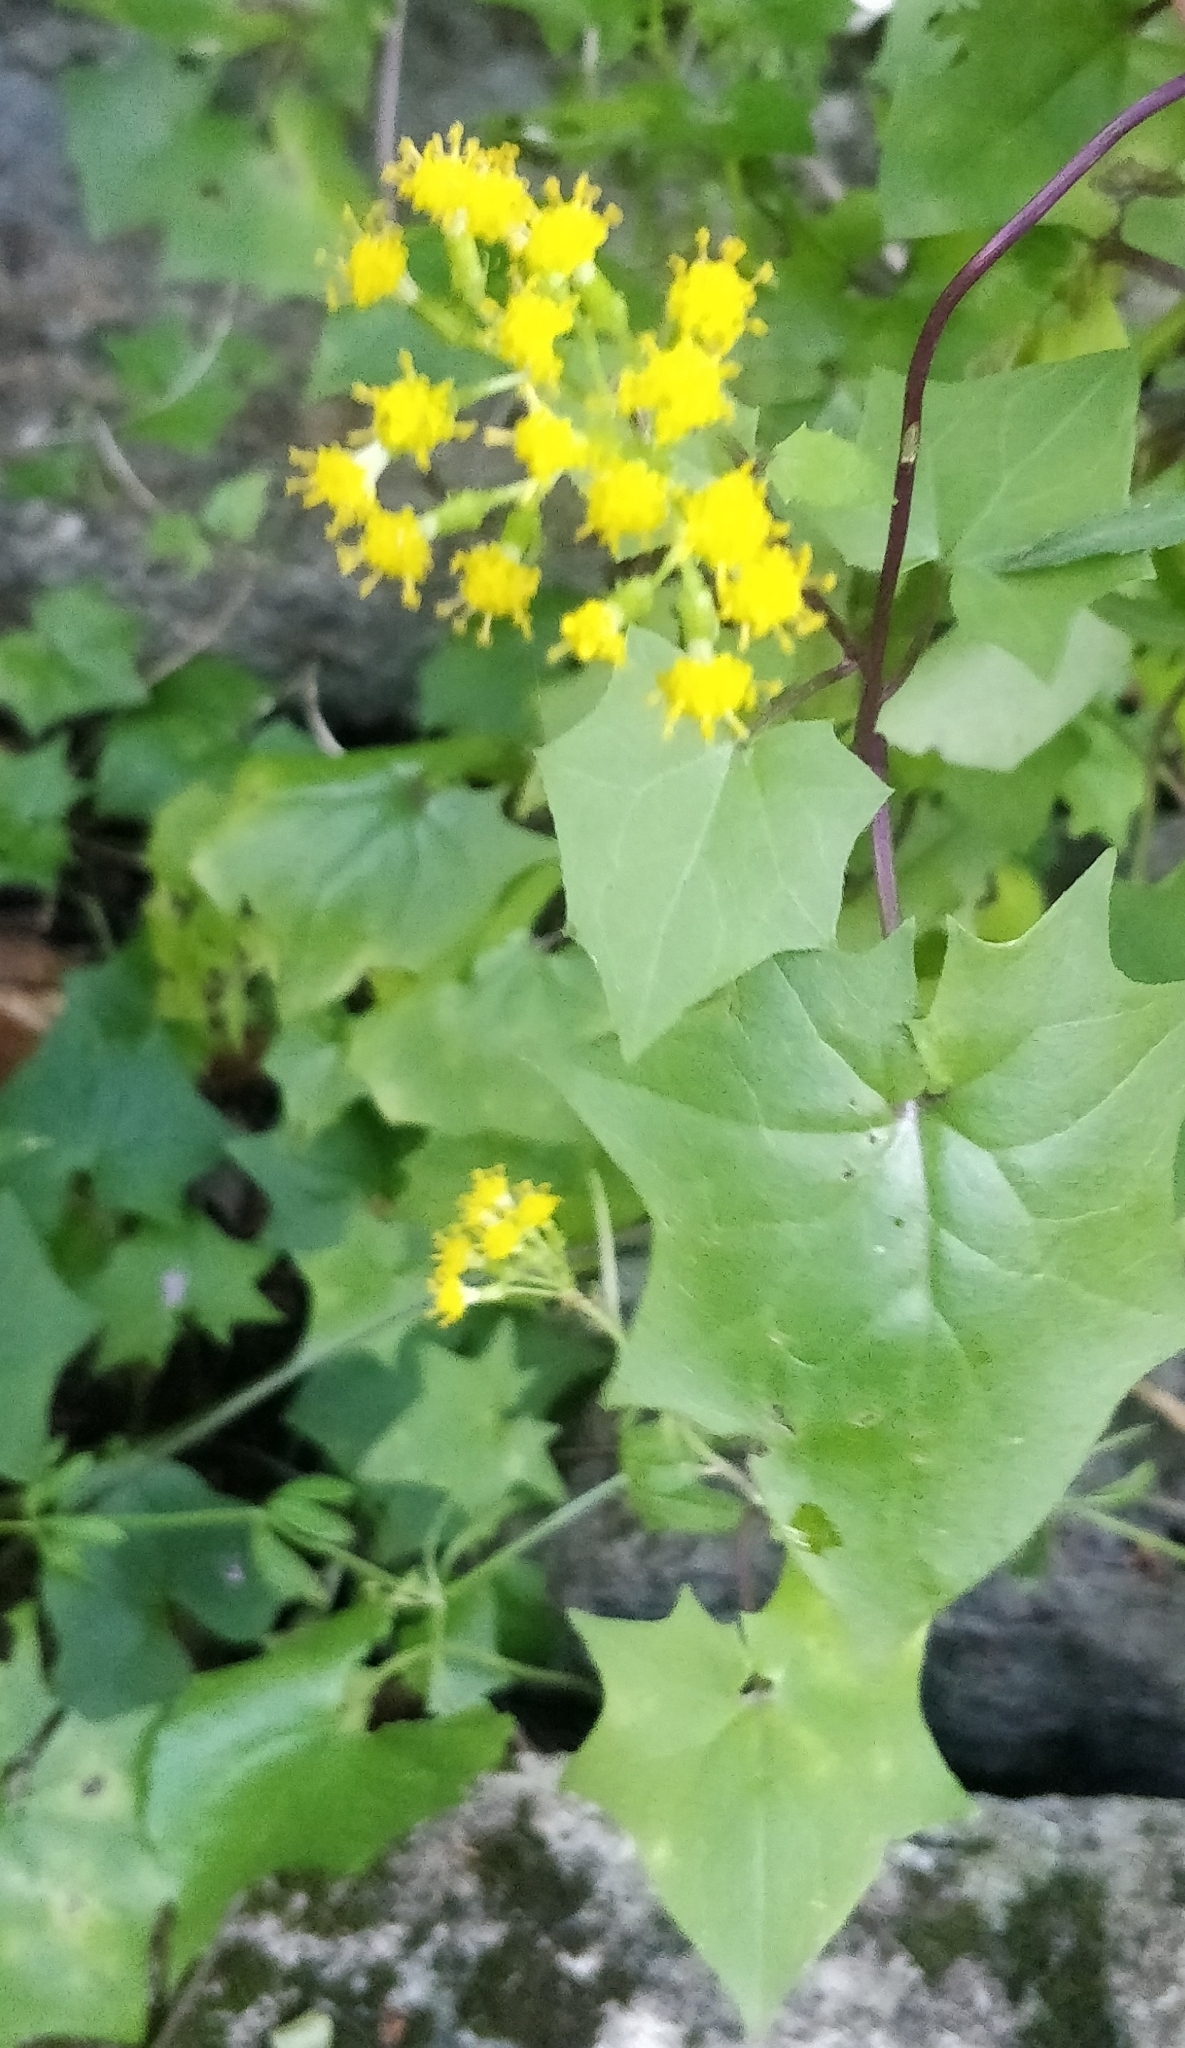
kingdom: Plantae
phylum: Tracheophyta
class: Magnoliopsida
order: Asterales
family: Asteraceae
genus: Delairea
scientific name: Delairea odorata
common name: Cape-ivy
